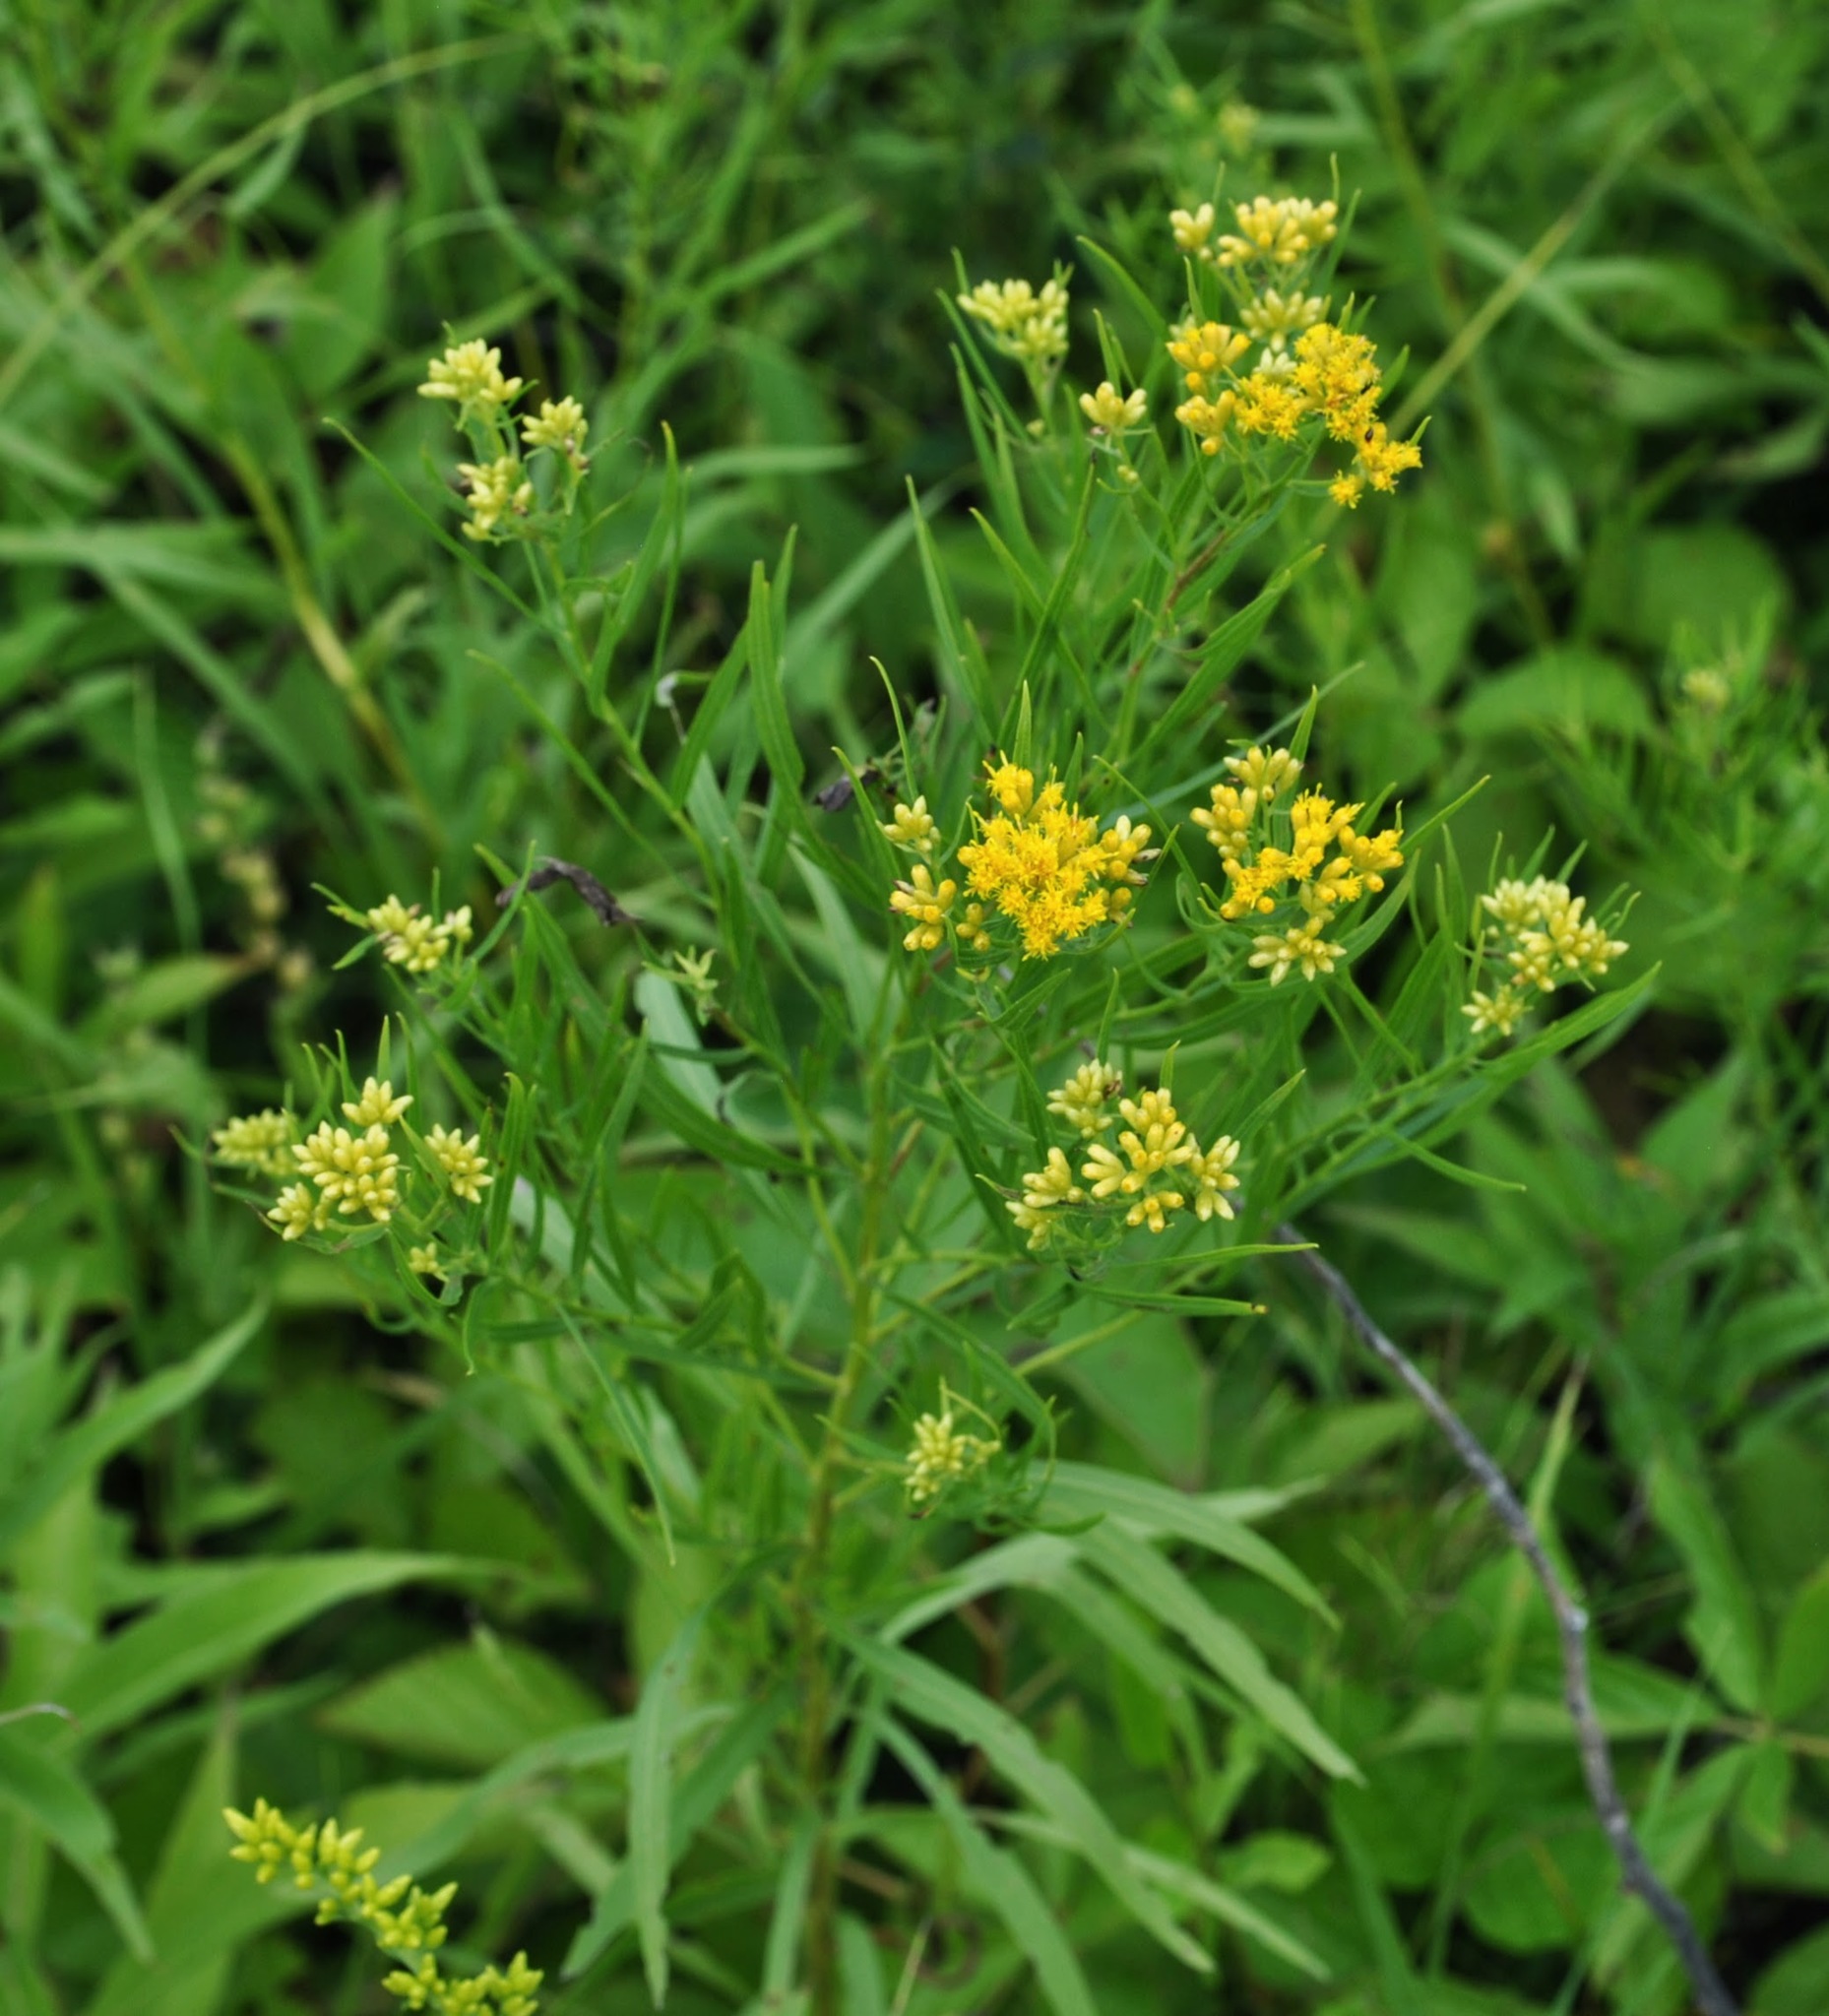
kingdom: Plantae
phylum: Tracheophyta
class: Magnoliopsida
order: Asterales
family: Asteraceae
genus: Euthamia
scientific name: Euthamia graminifolia
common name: Common goldentop
